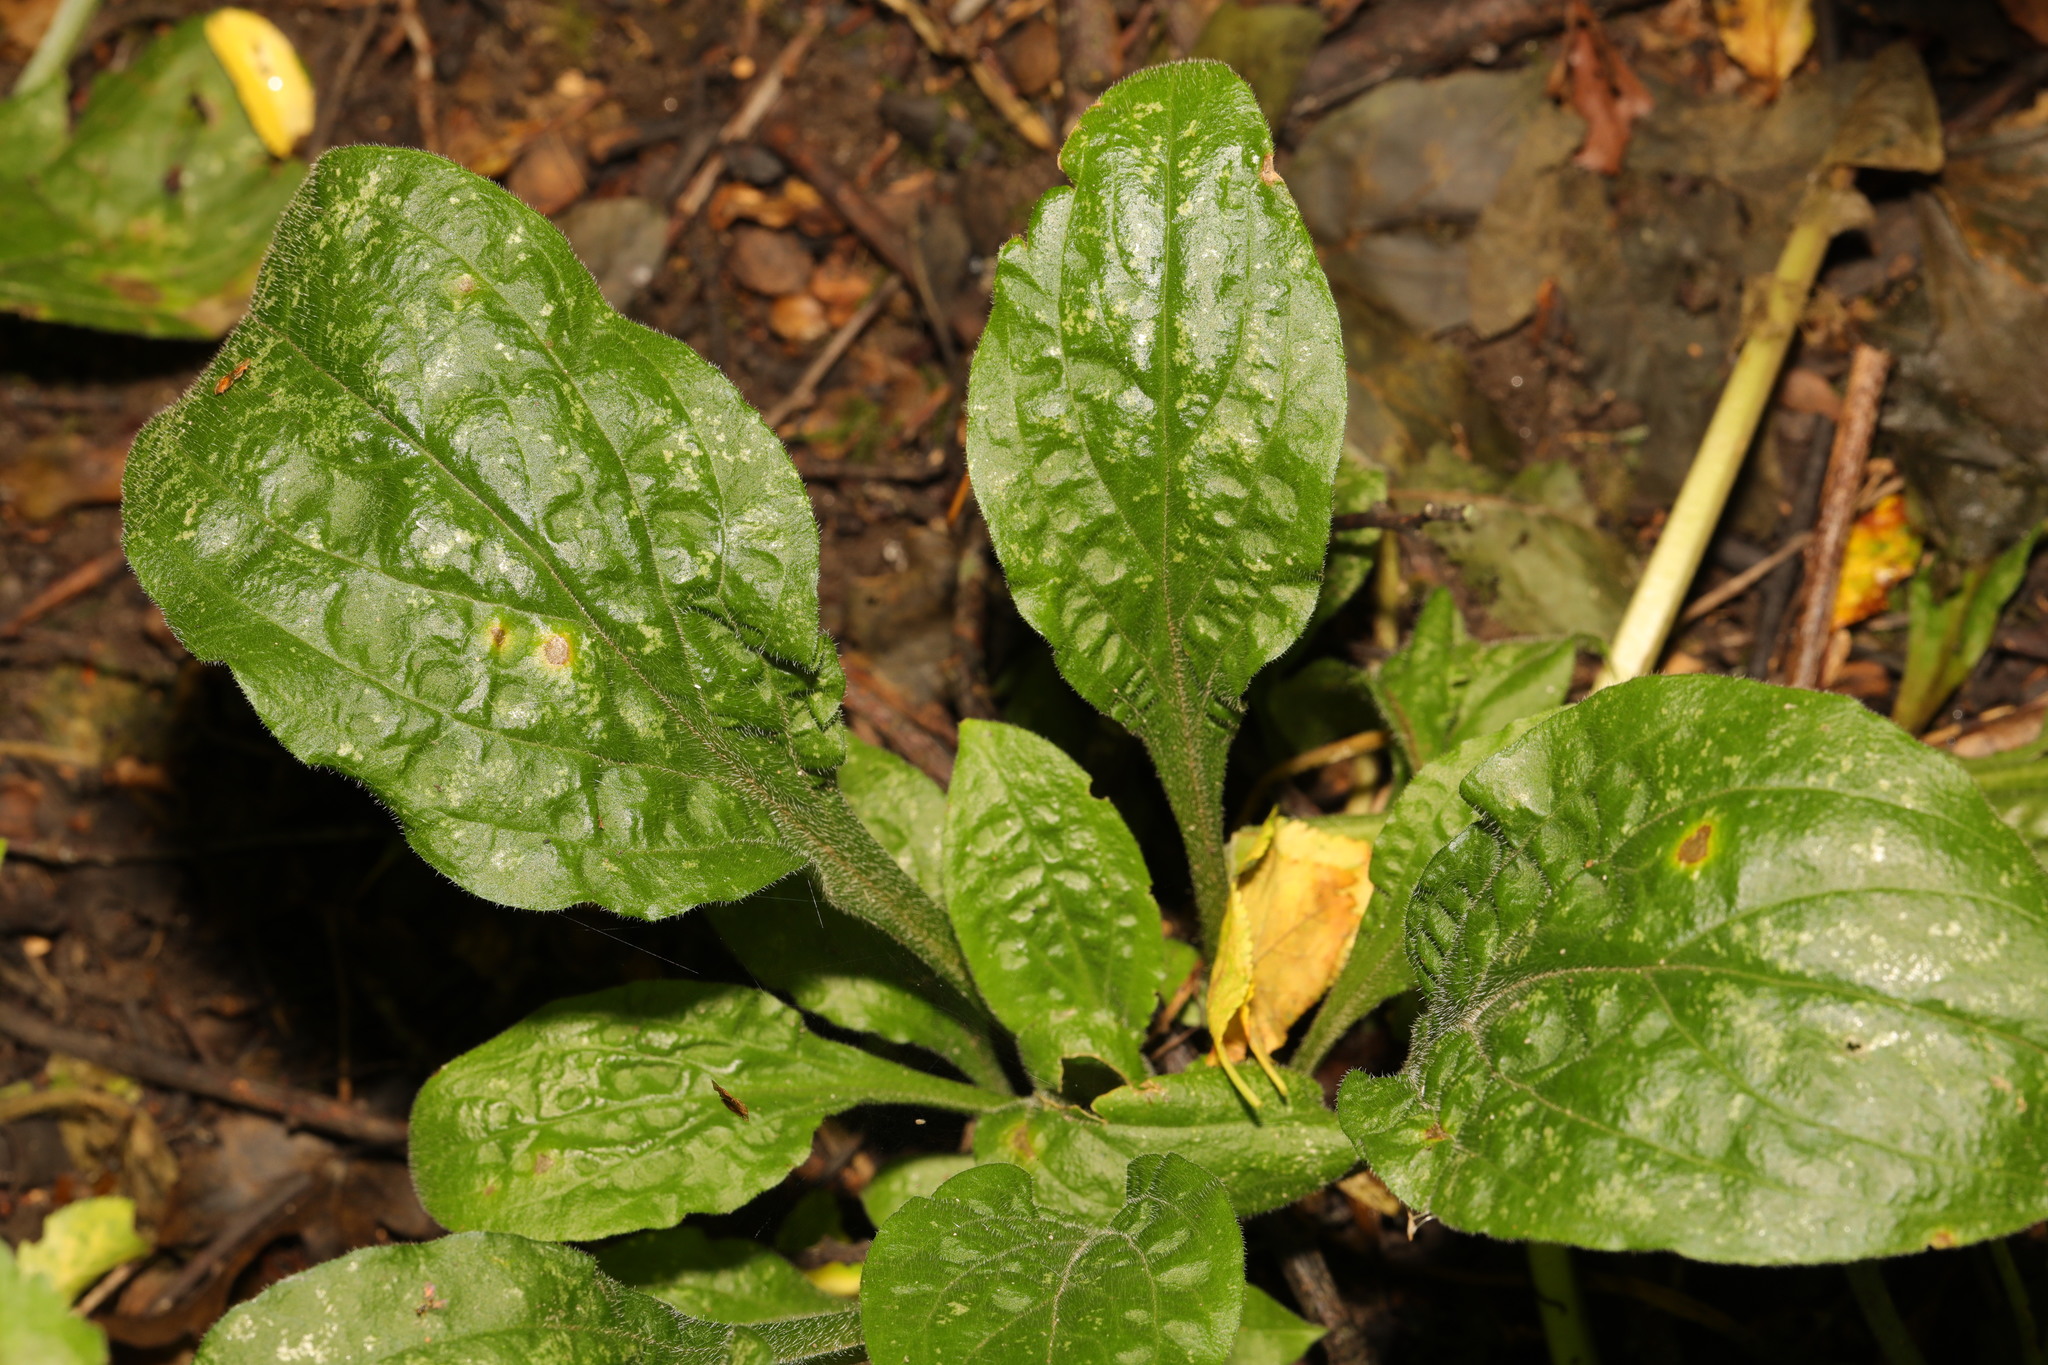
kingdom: Plantae
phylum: Tracheophyta
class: Magnoliopsida
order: Caryophyllales
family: Caryophyllaceae
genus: Silene
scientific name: Silene dioica
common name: Red campion
